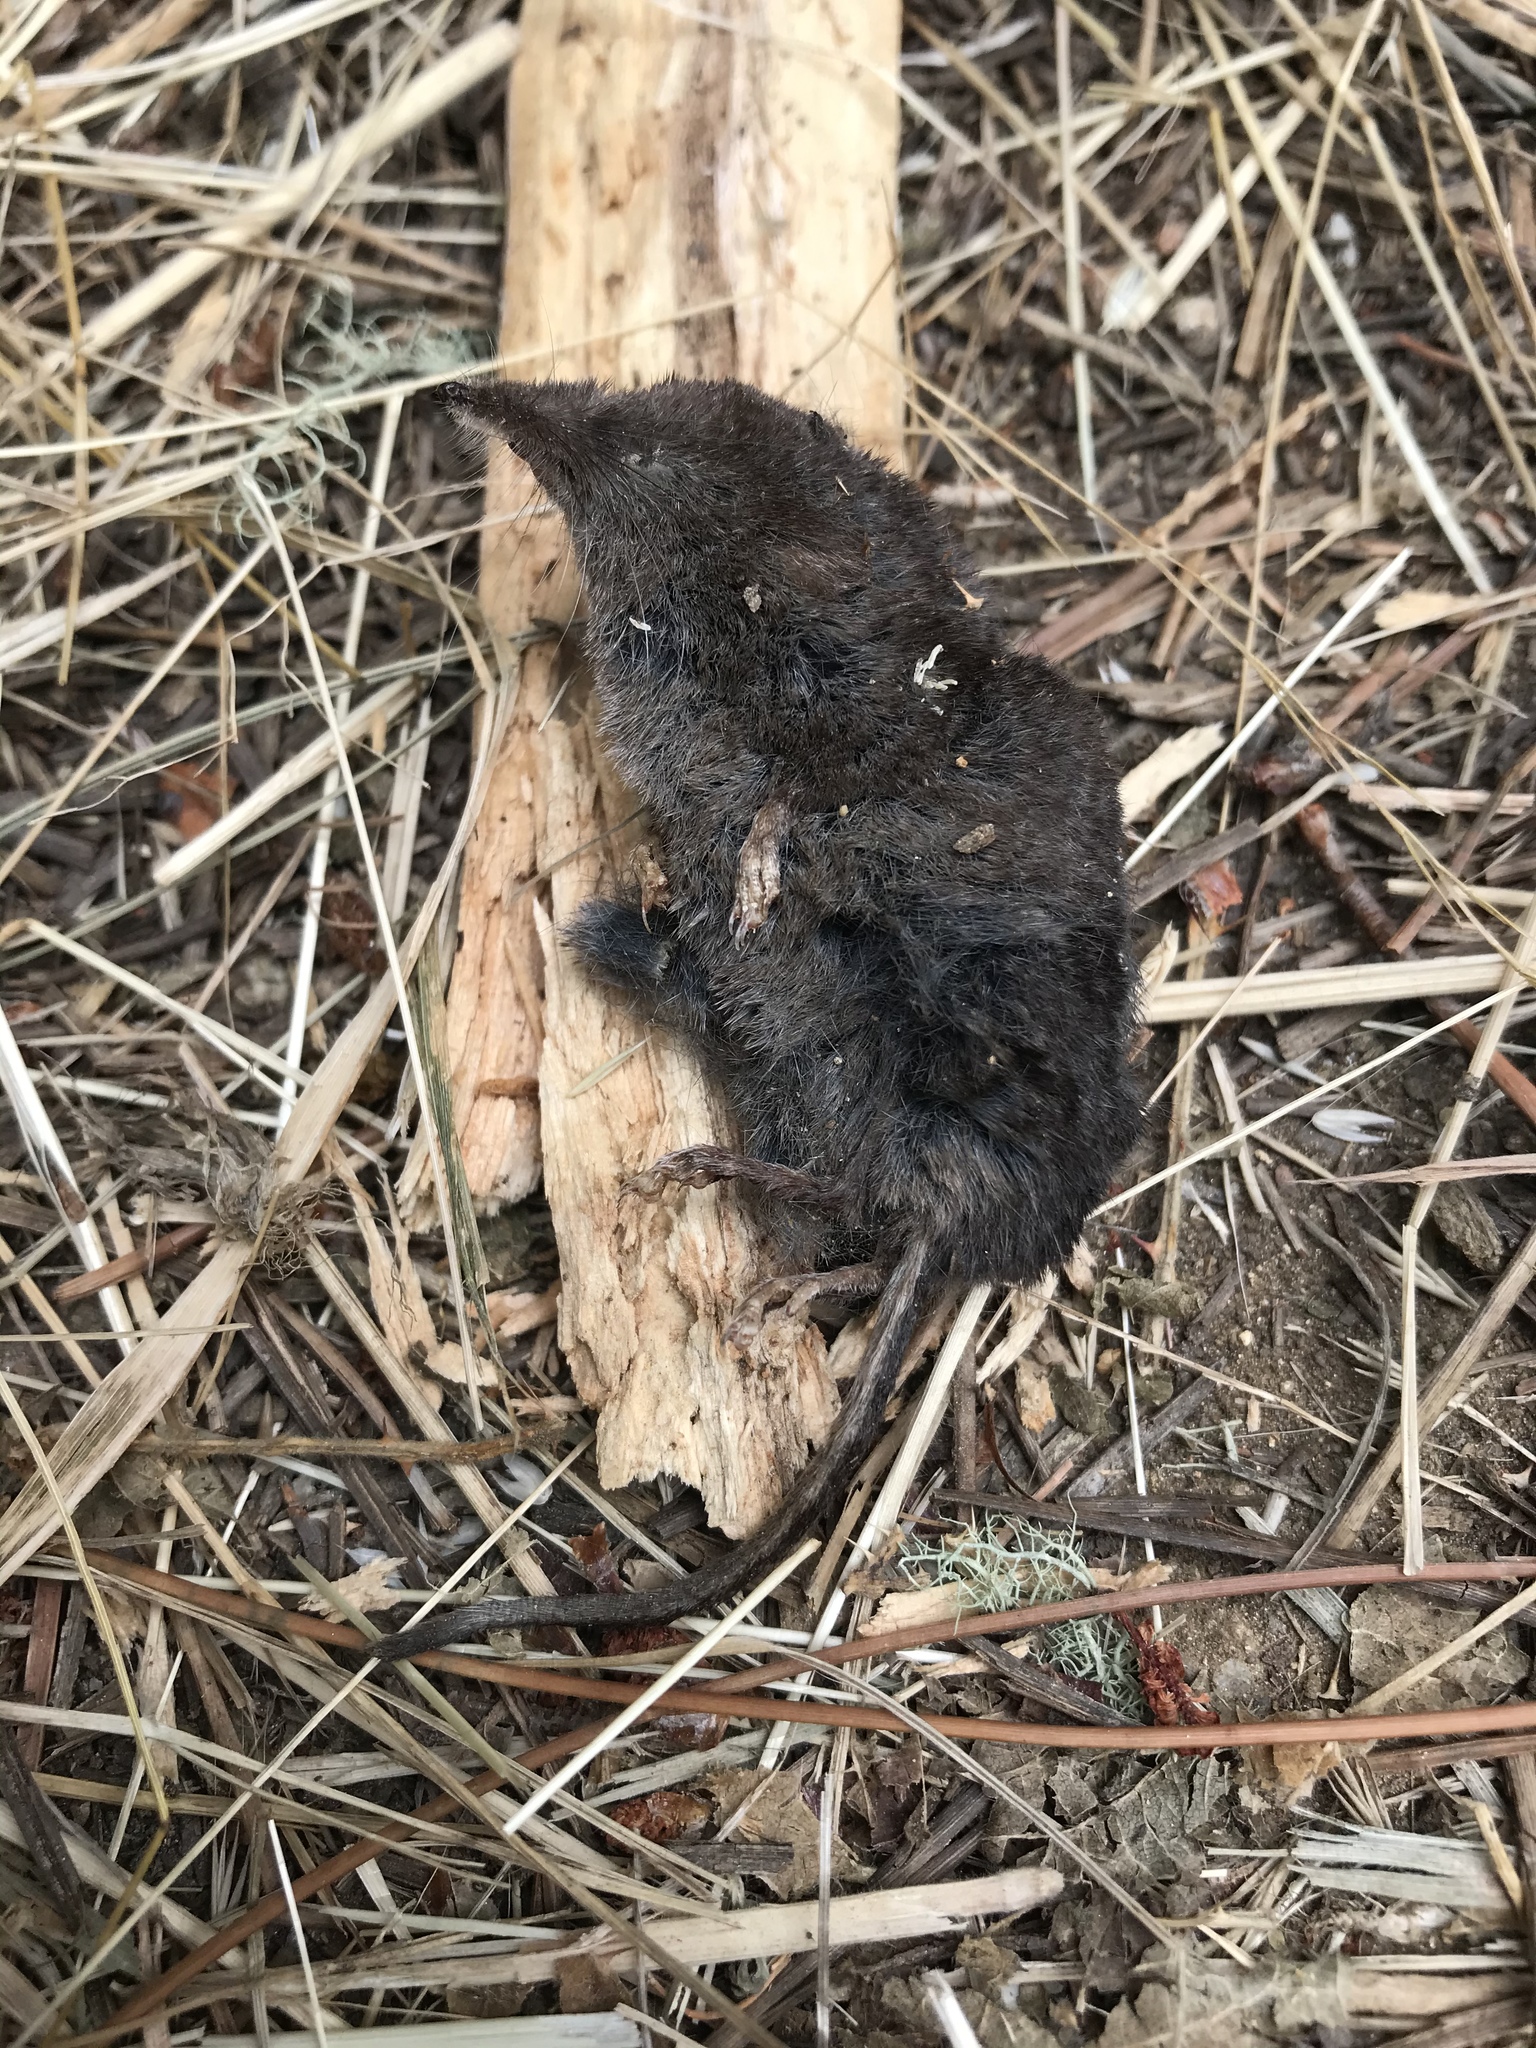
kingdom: Animalia
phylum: Chordata
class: Mammalia
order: Soricomorpha
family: Soricidae
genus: Sorex
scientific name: Sorex trowbridgii
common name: Trowbridge's shrew
